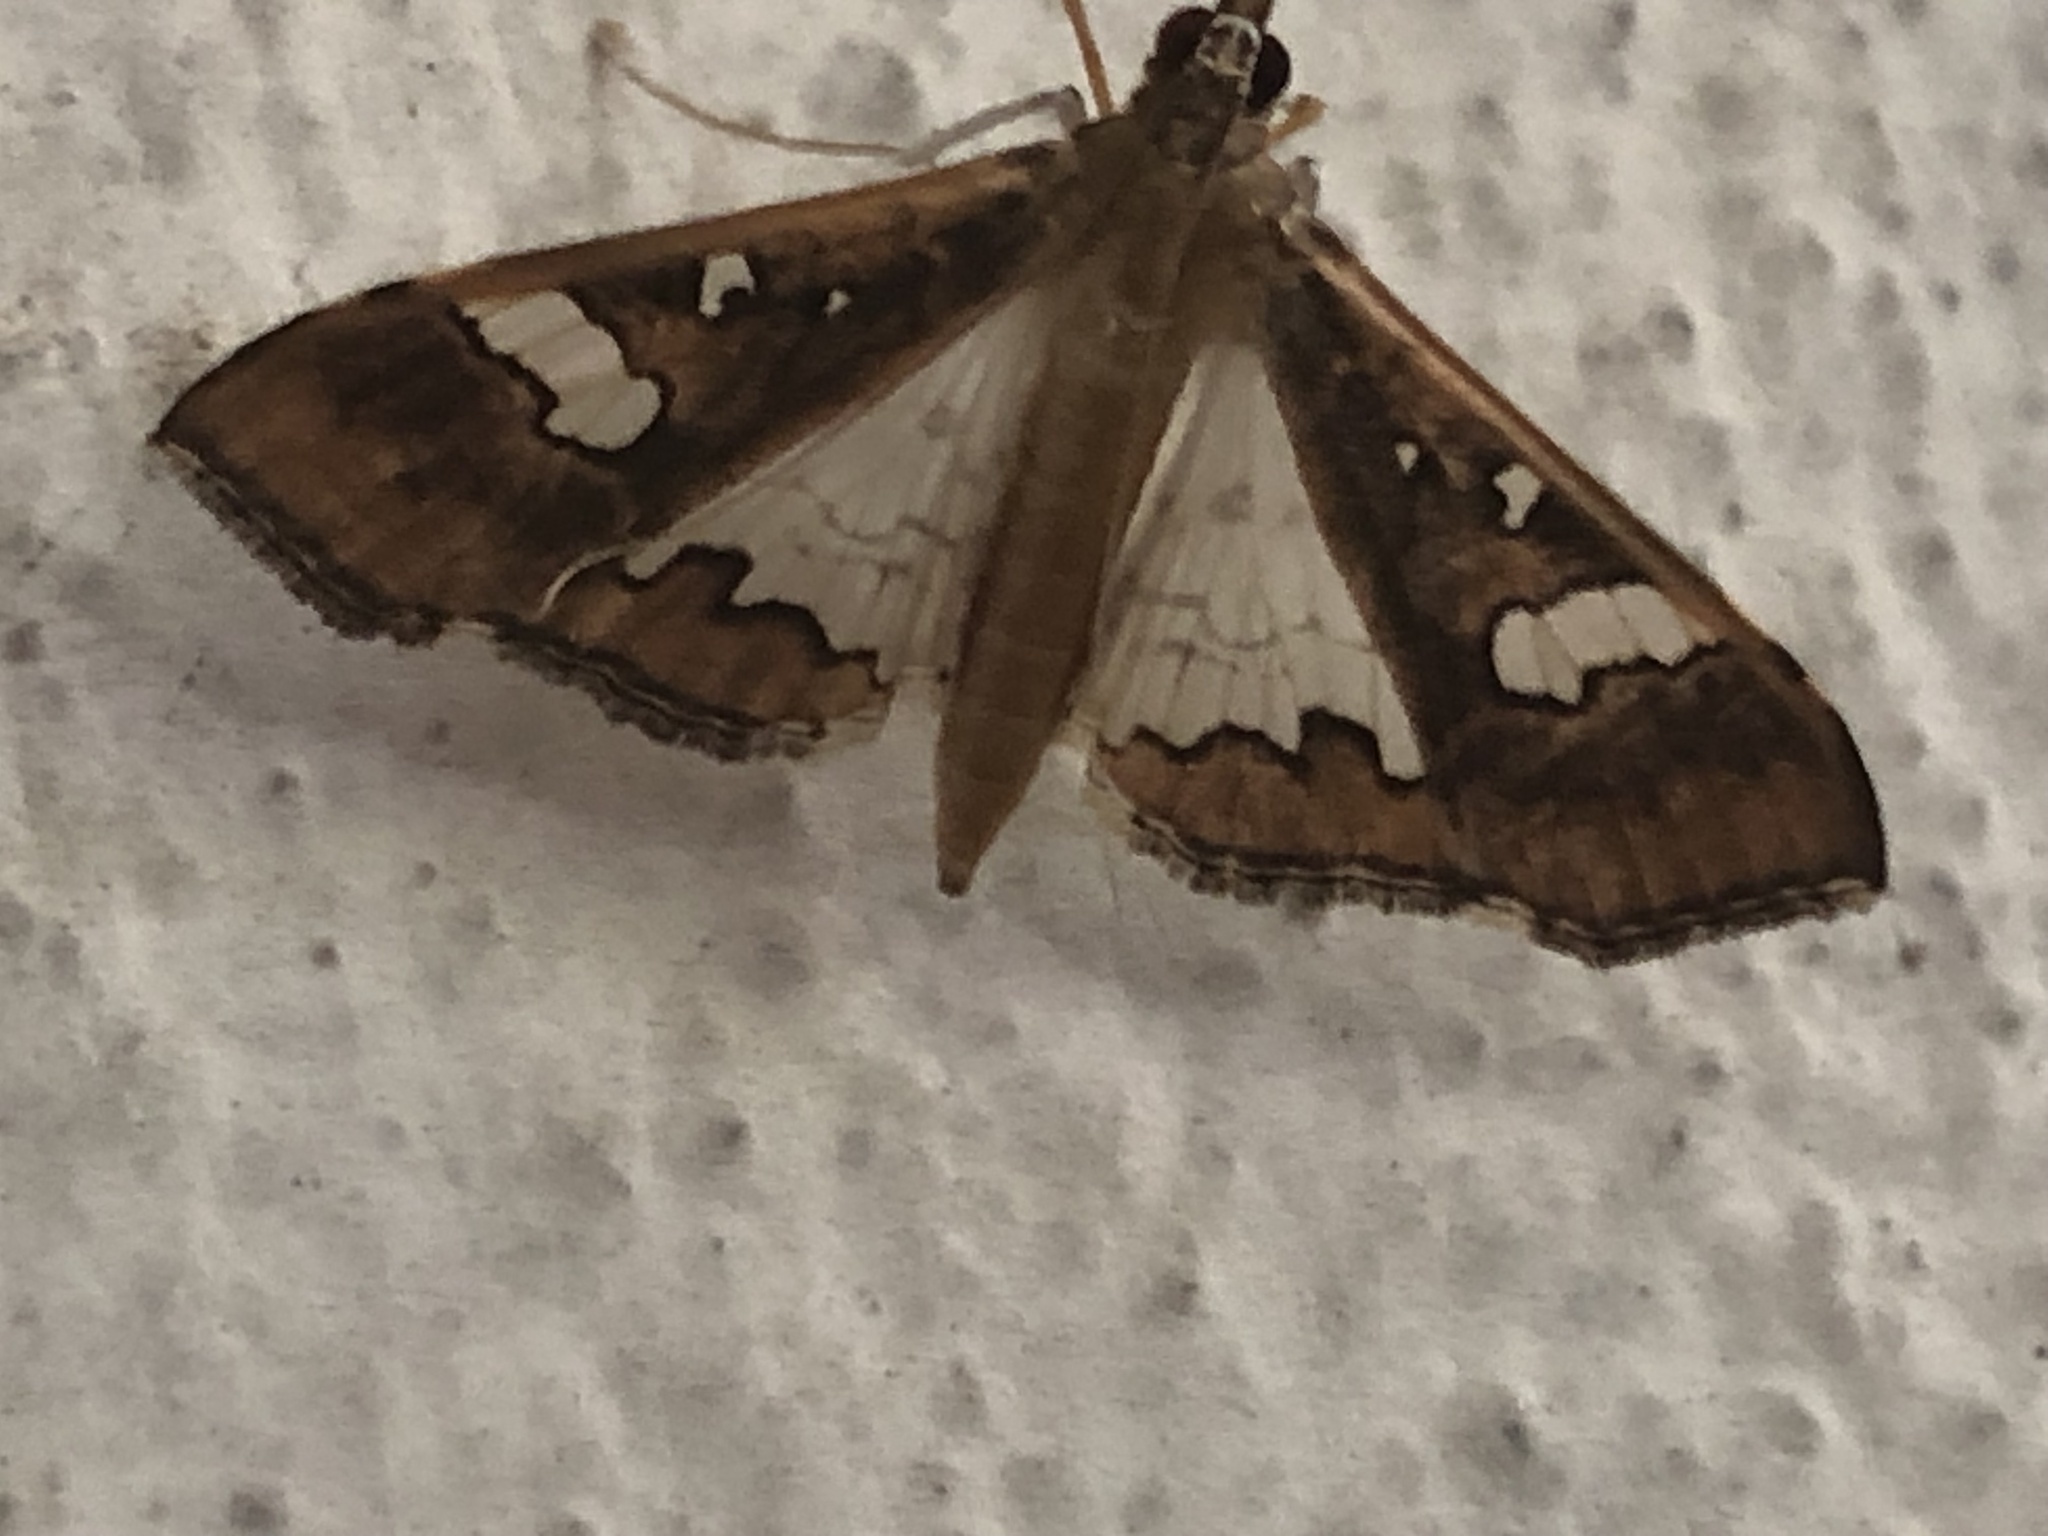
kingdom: Animalia
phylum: Arthropoda
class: Insecta
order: Lepidoptera
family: Crambidae
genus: Maruca
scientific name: Maruca vitrata
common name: Maruca pod borer
